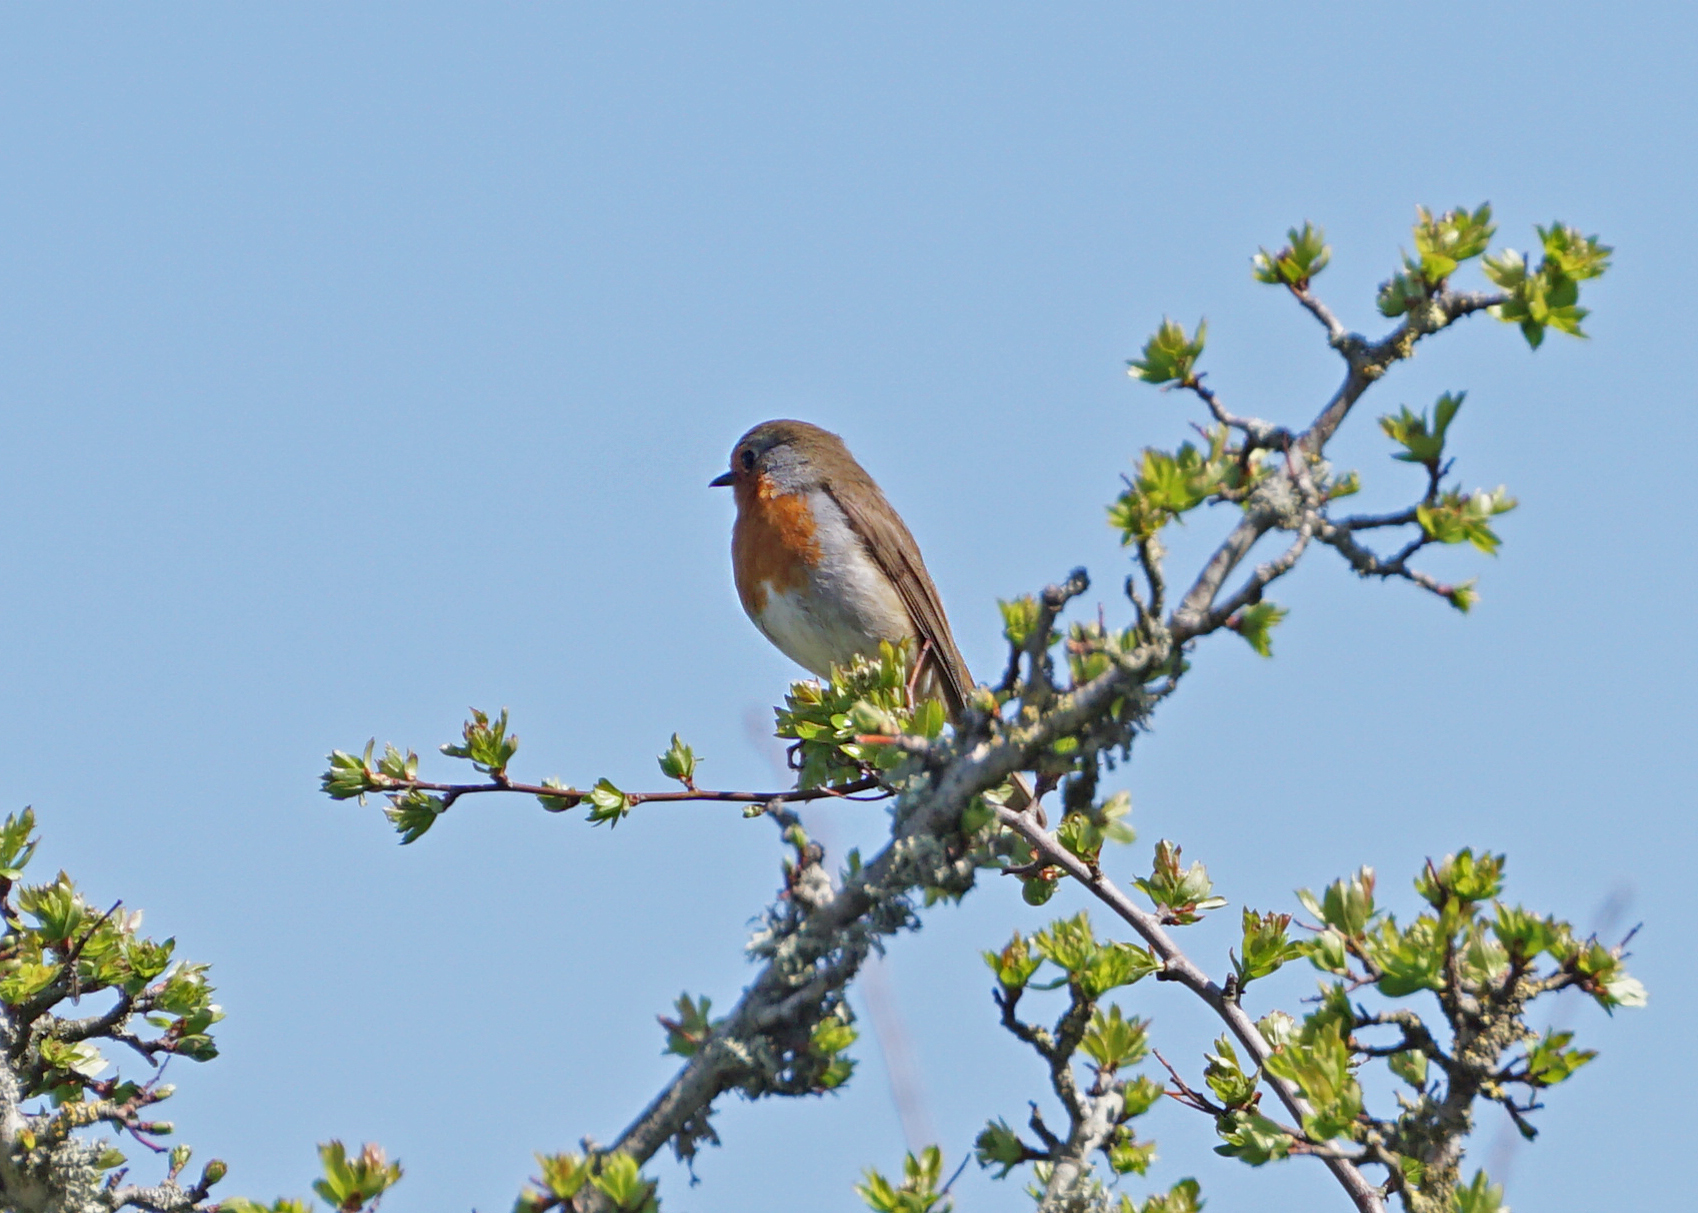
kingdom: Animalia
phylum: Chordata
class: Aves
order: Passeriformes
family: Muscicapidae
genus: Erithacus
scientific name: Erithacus rubecula
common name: European robin
